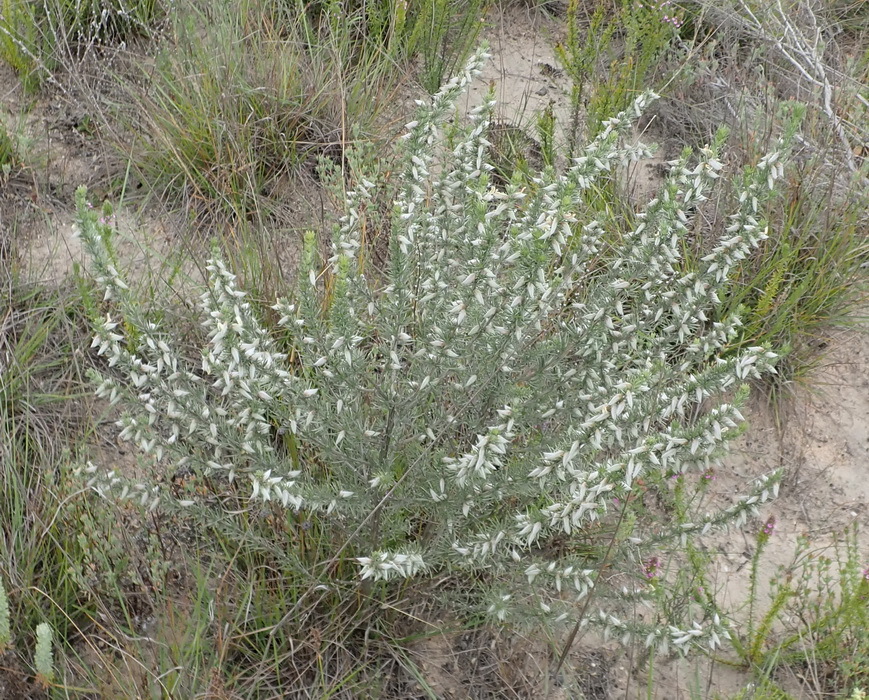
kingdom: Plantae
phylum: Tracheophyta
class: Magnoliopsida
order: Fabales
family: Fabaceae
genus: Aspalathus
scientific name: Aspalathus glabrescens
